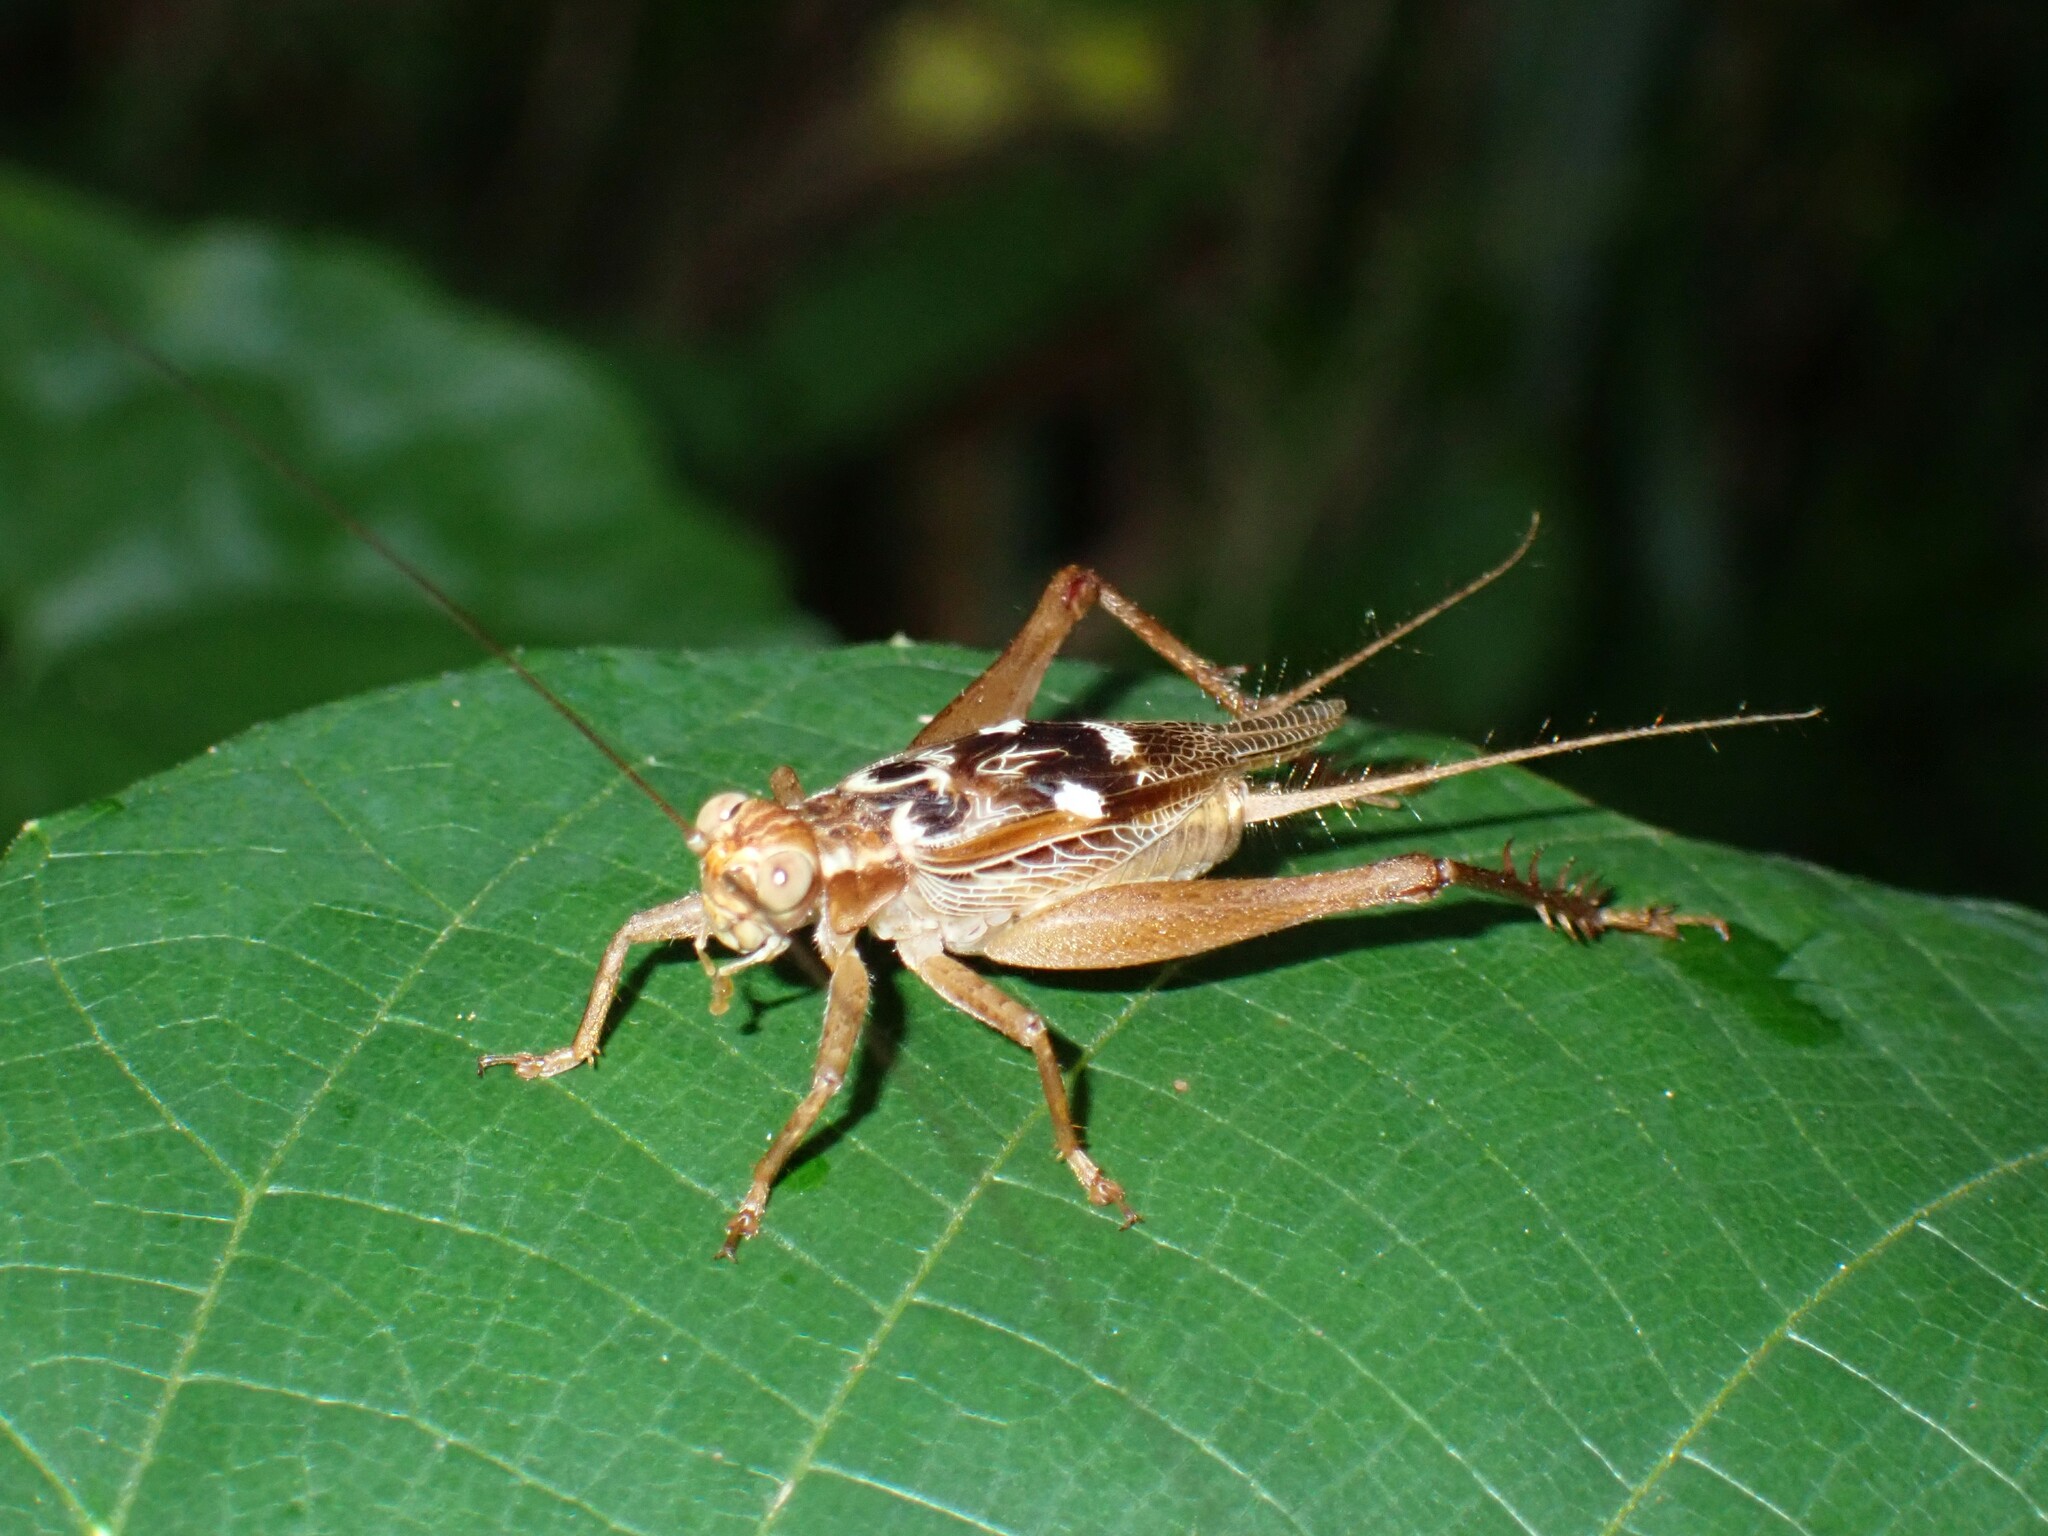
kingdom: Animalia
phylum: Arthropoda
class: Insecta
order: Orthoptera
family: Gryllidae
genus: Cardiodactylus
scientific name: Cardiodactylus novaeguineae
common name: Sad cricket
